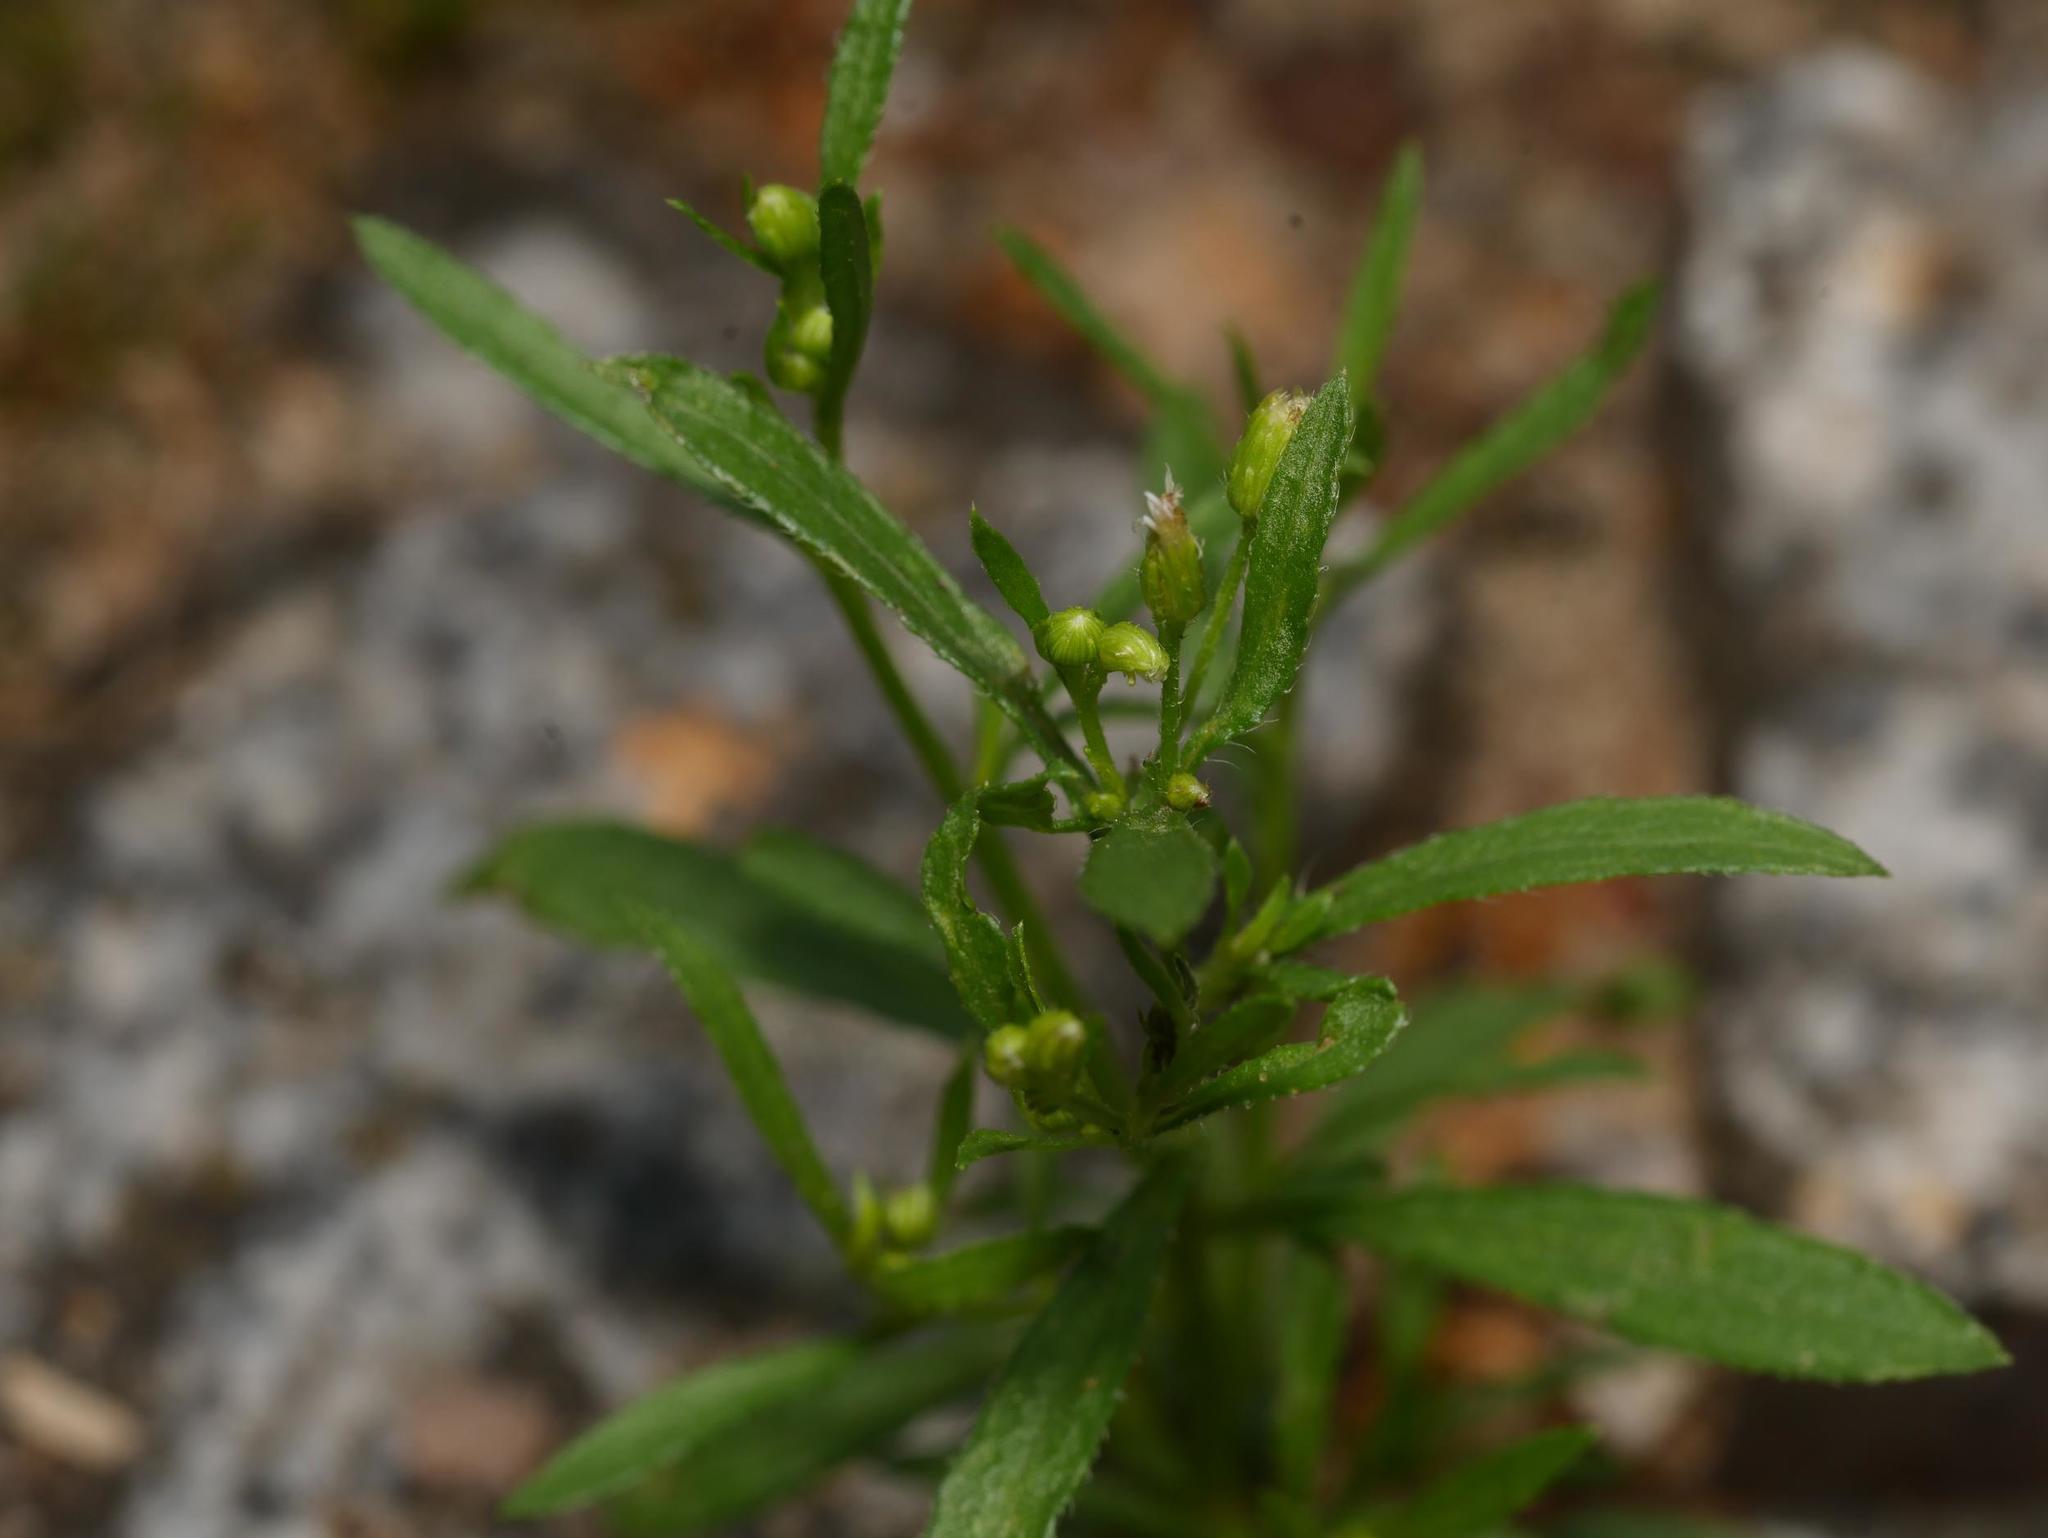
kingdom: Plantae
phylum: Tracheophyta
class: Magnoliopsida
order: Asterales
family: Asteraceae
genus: Erigeron
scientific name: Erigeron canadensis
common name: Canadian fleabane
